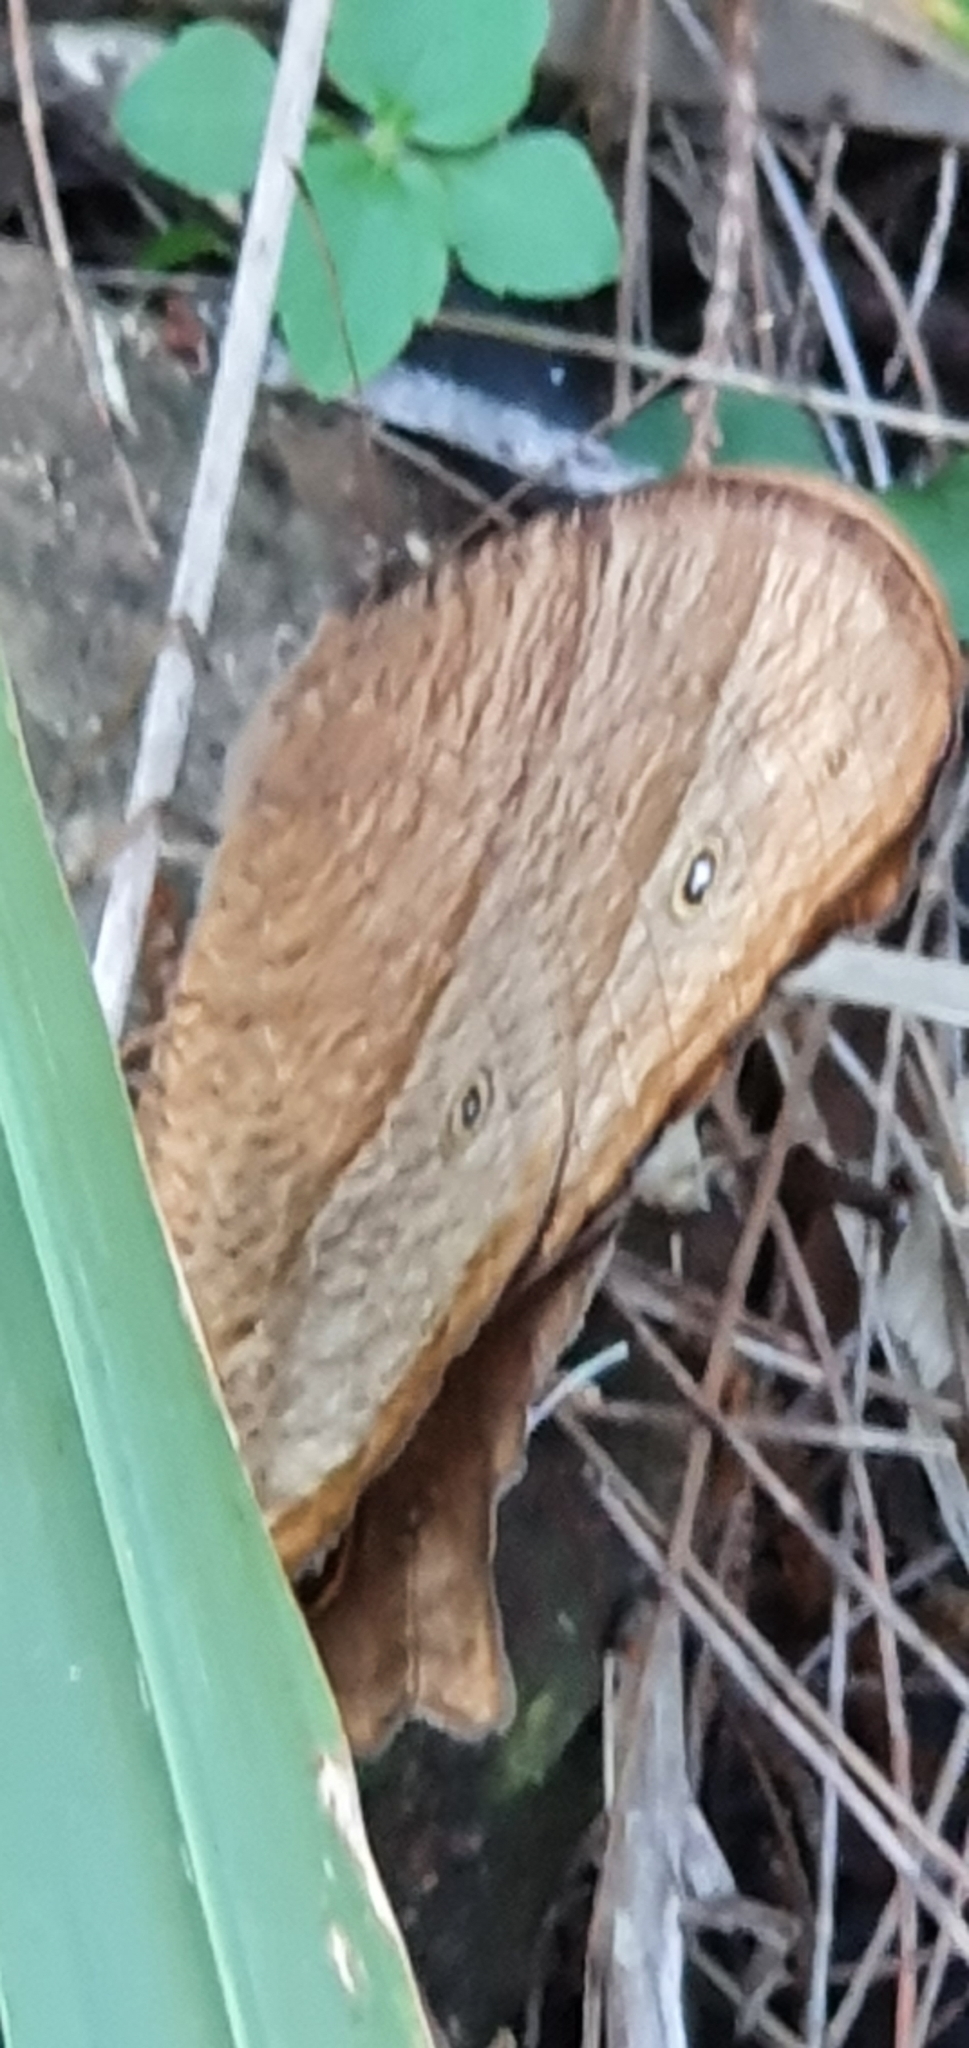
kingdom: Animalia
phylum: Arthropoda
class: Insecta
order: Lepidoptera
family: Nymphalidae
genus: Melanitis
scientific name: Melanitis leda
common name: Twilight brown
